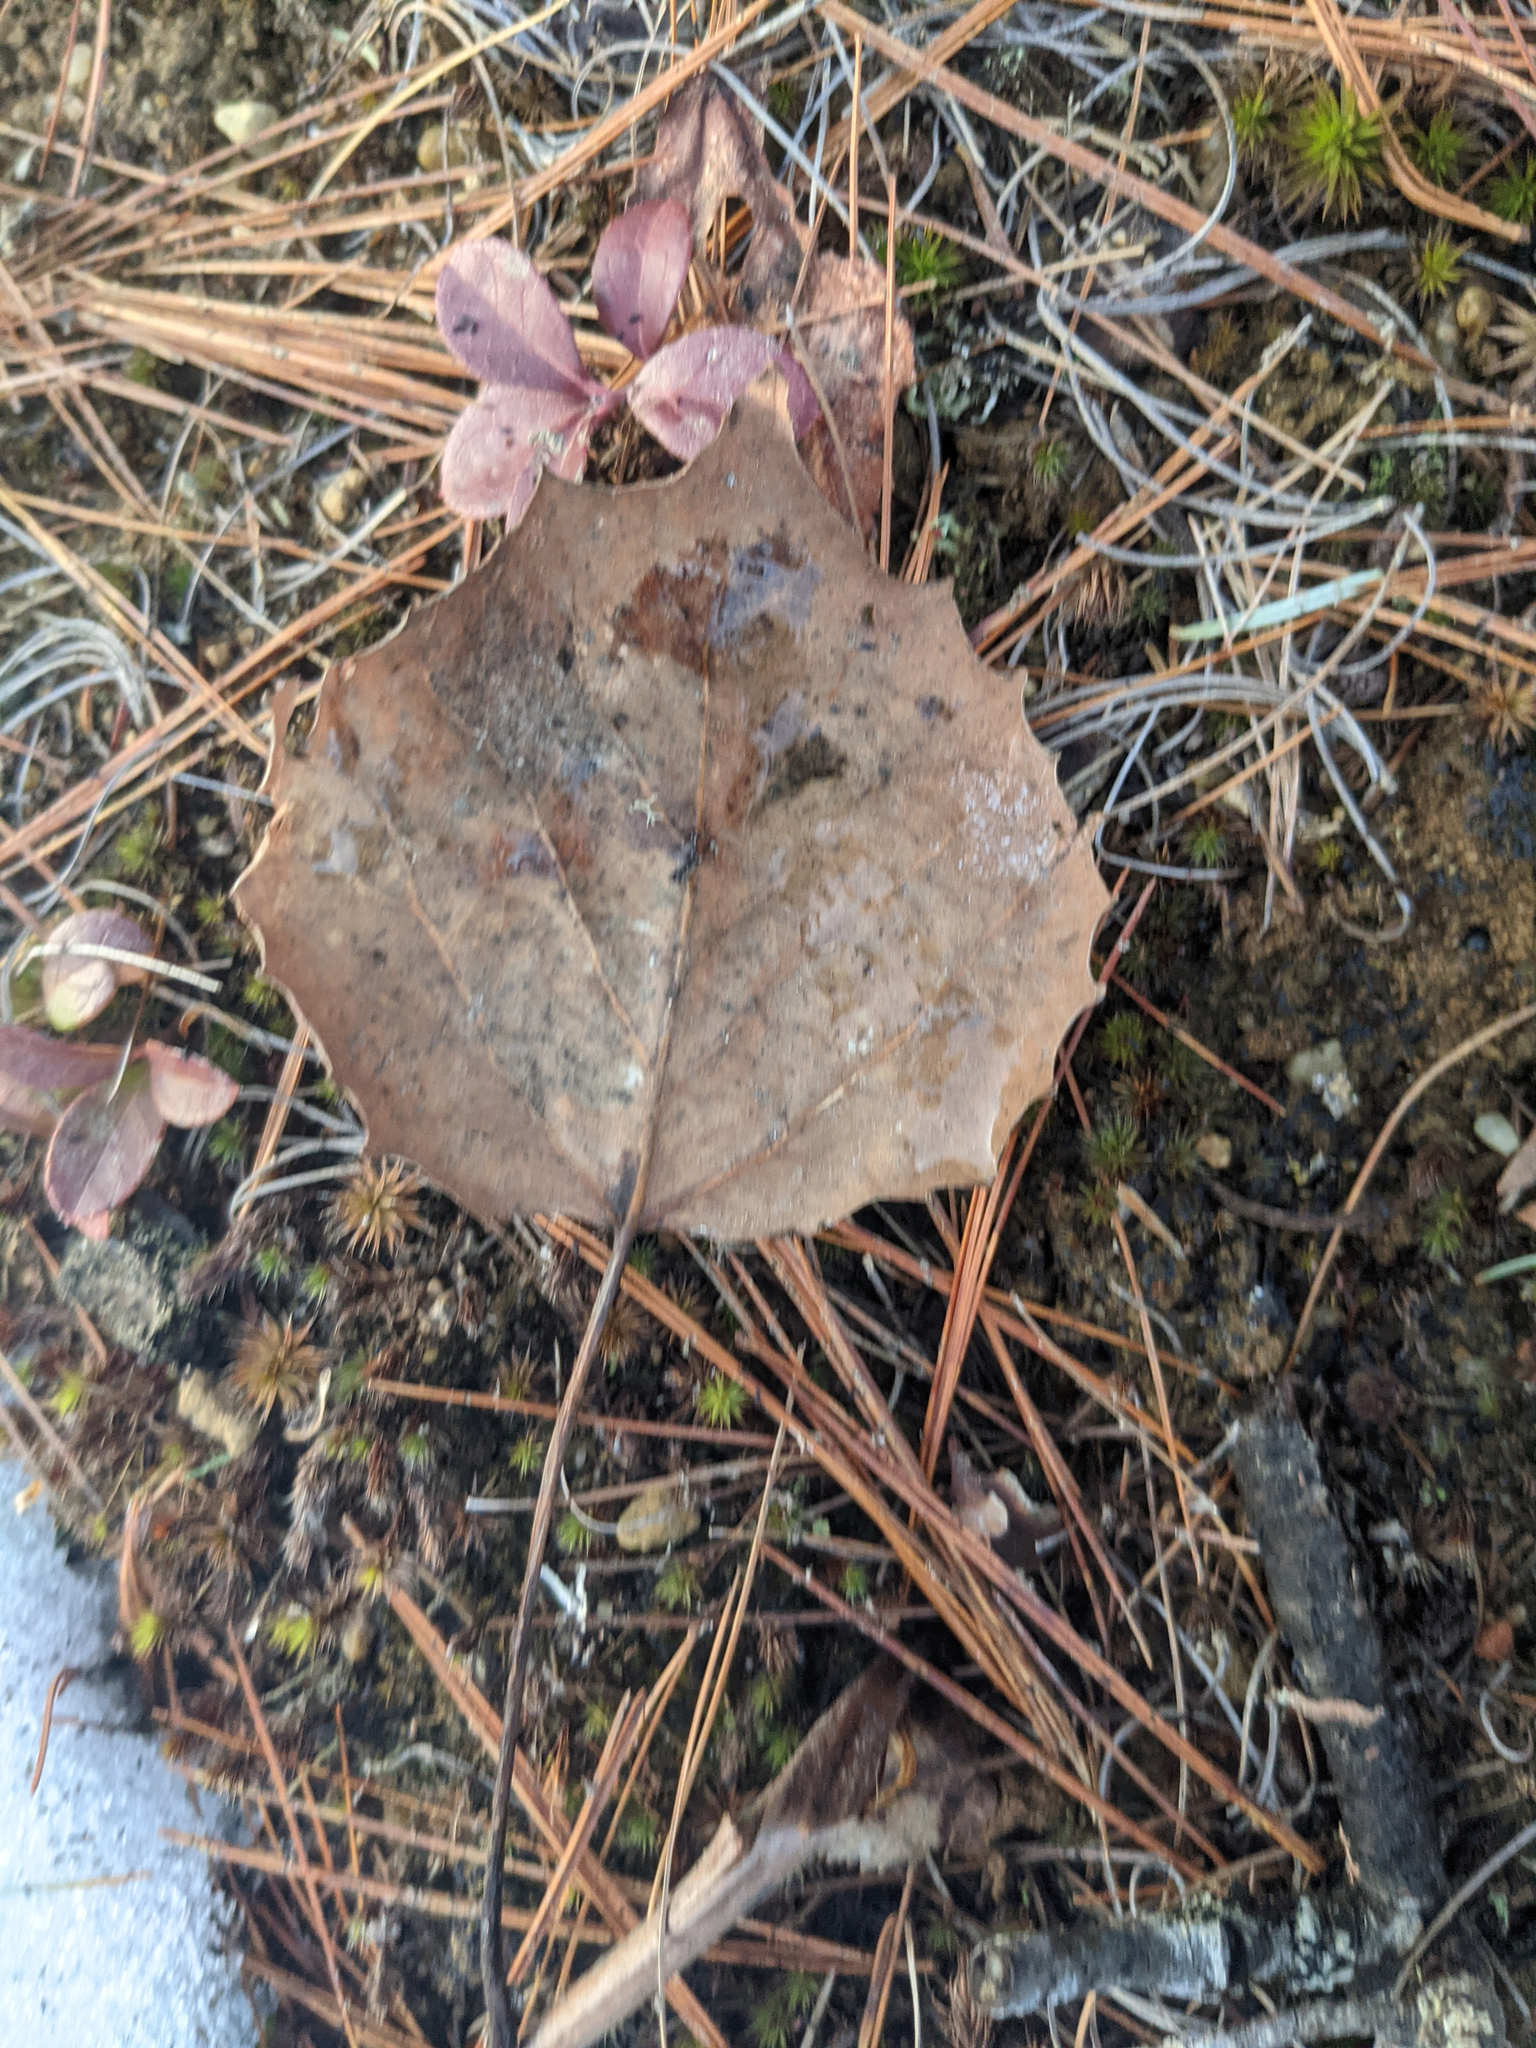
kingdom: Plantae
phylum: Tracheophyta
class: Magnoliopsida
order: Malpighiales
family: Salicaceae
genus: Populus
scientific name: Populus grandidentata
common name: Bigtooth aspen
